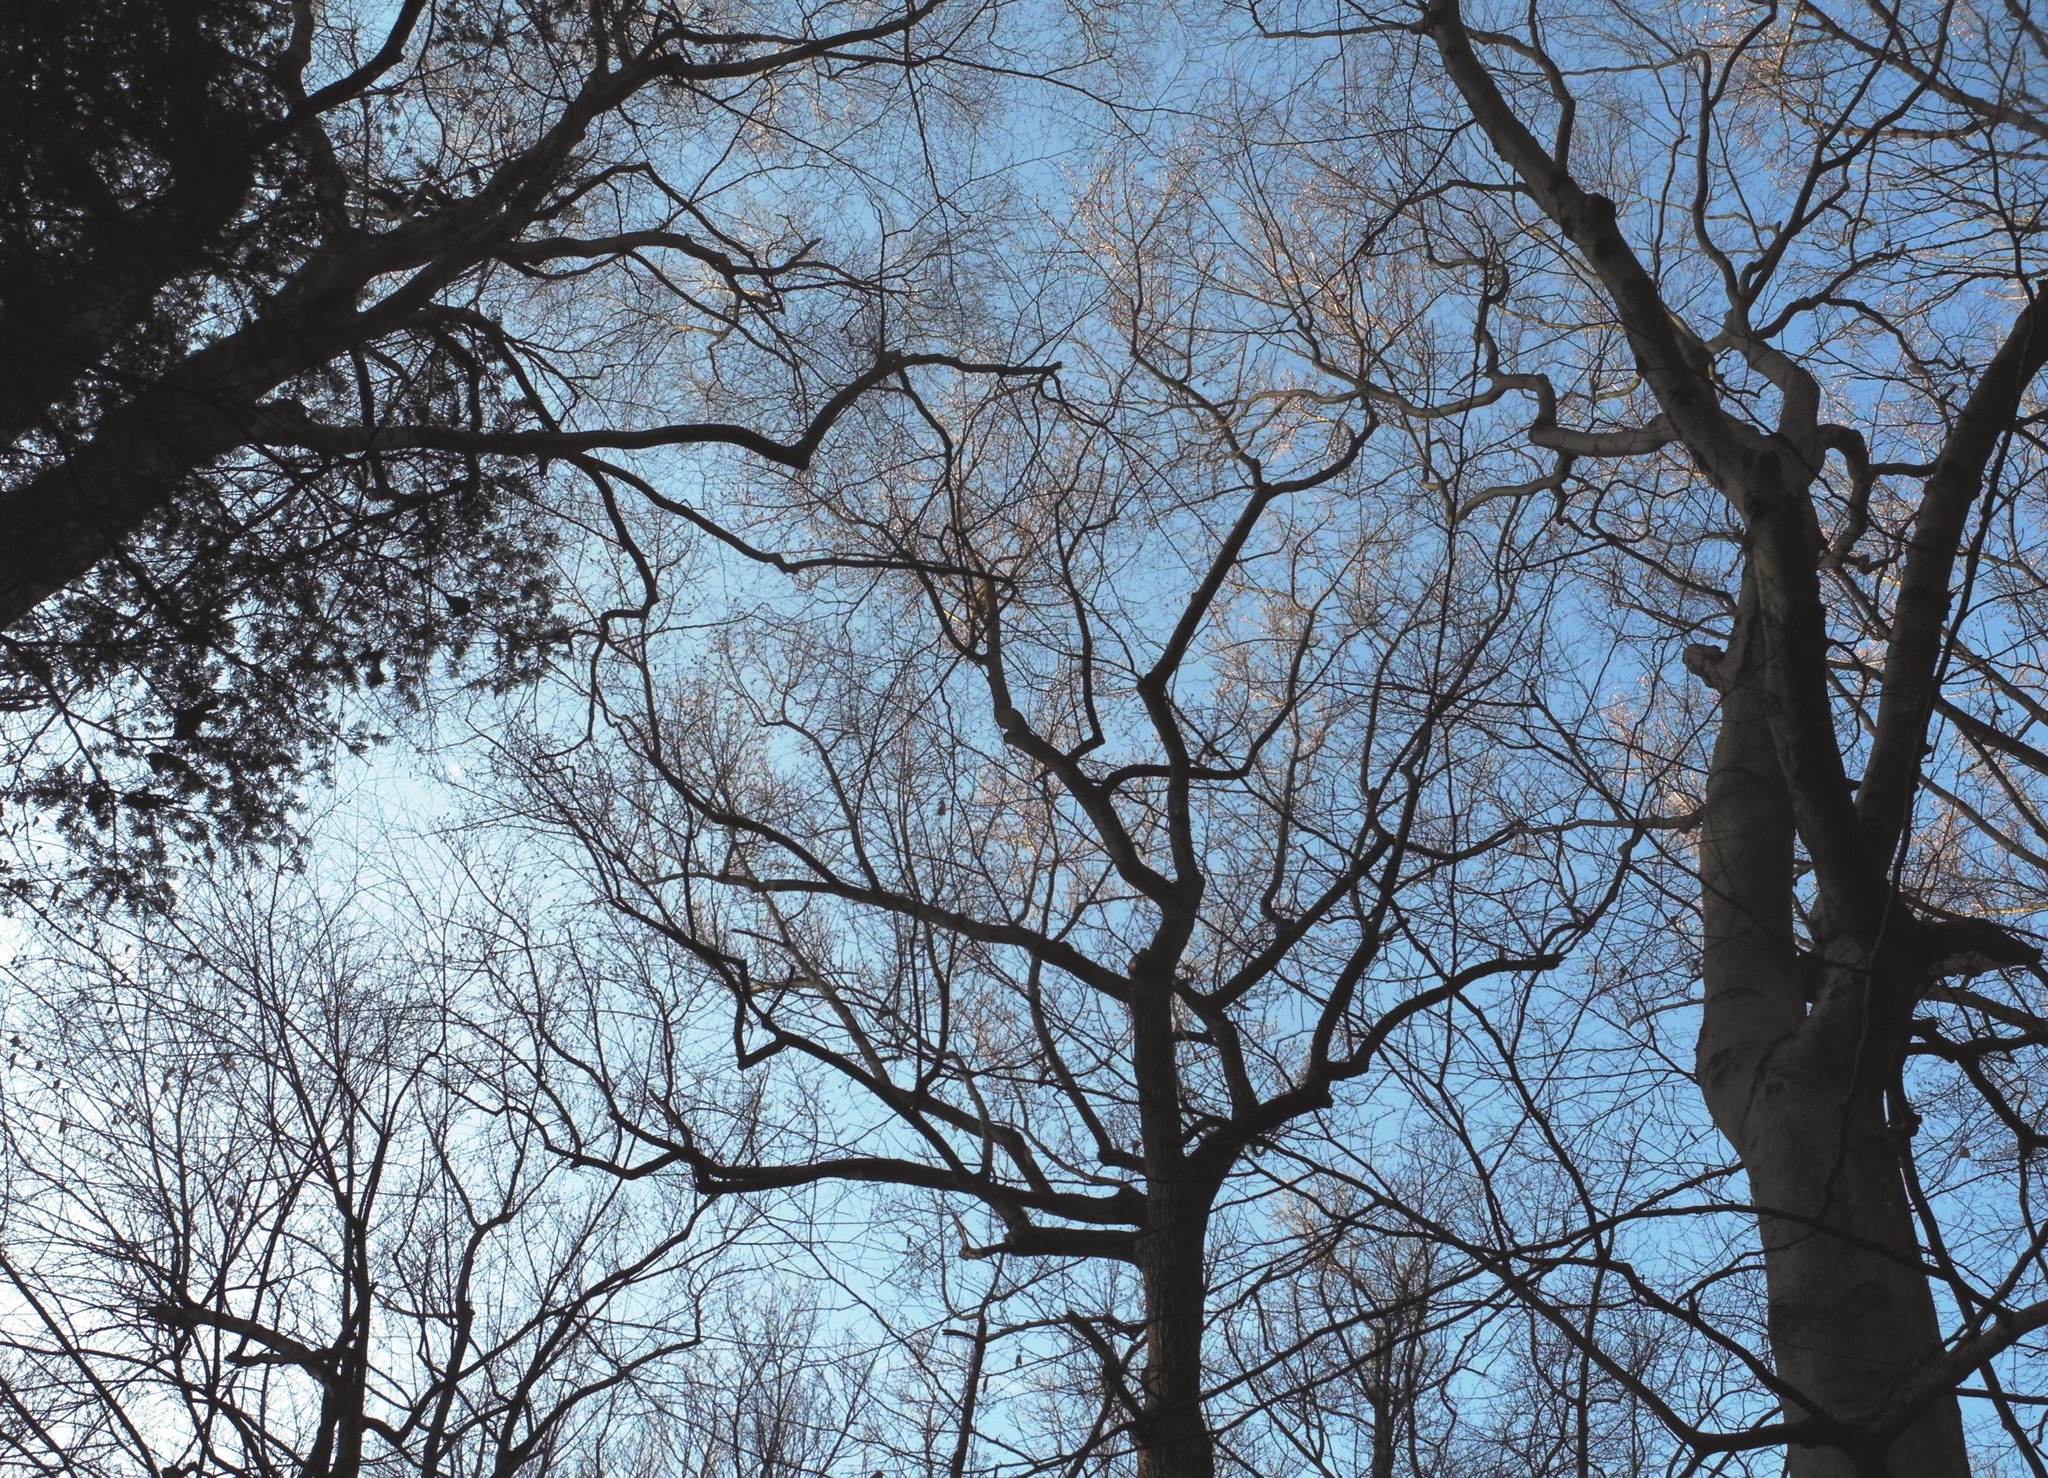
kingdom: Plantae
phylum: Tracheophyta
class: Magnoliopsida
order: Magnoliales
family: Magnoliaceae
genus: Liriodendron
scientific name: Liriodendron tulipifera
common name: Tulip tree
